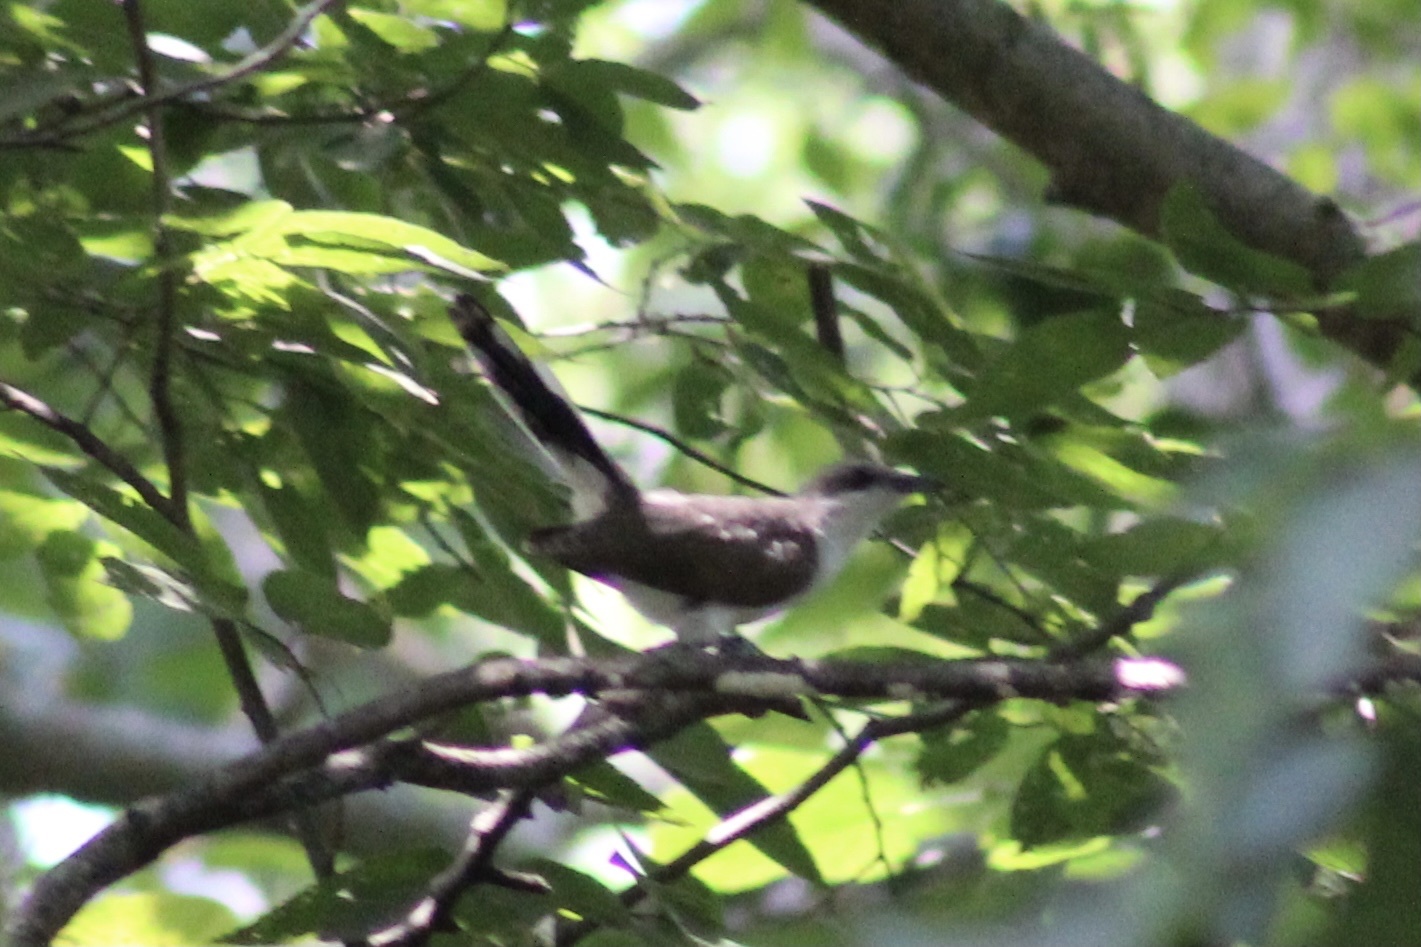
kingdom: Animalia
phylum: Chordata
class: Aves
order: Cuculiformes
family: Cuculidae
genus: Coccyzus
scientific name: Coccyzus americanus
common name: Yellow-billed cuckoo
